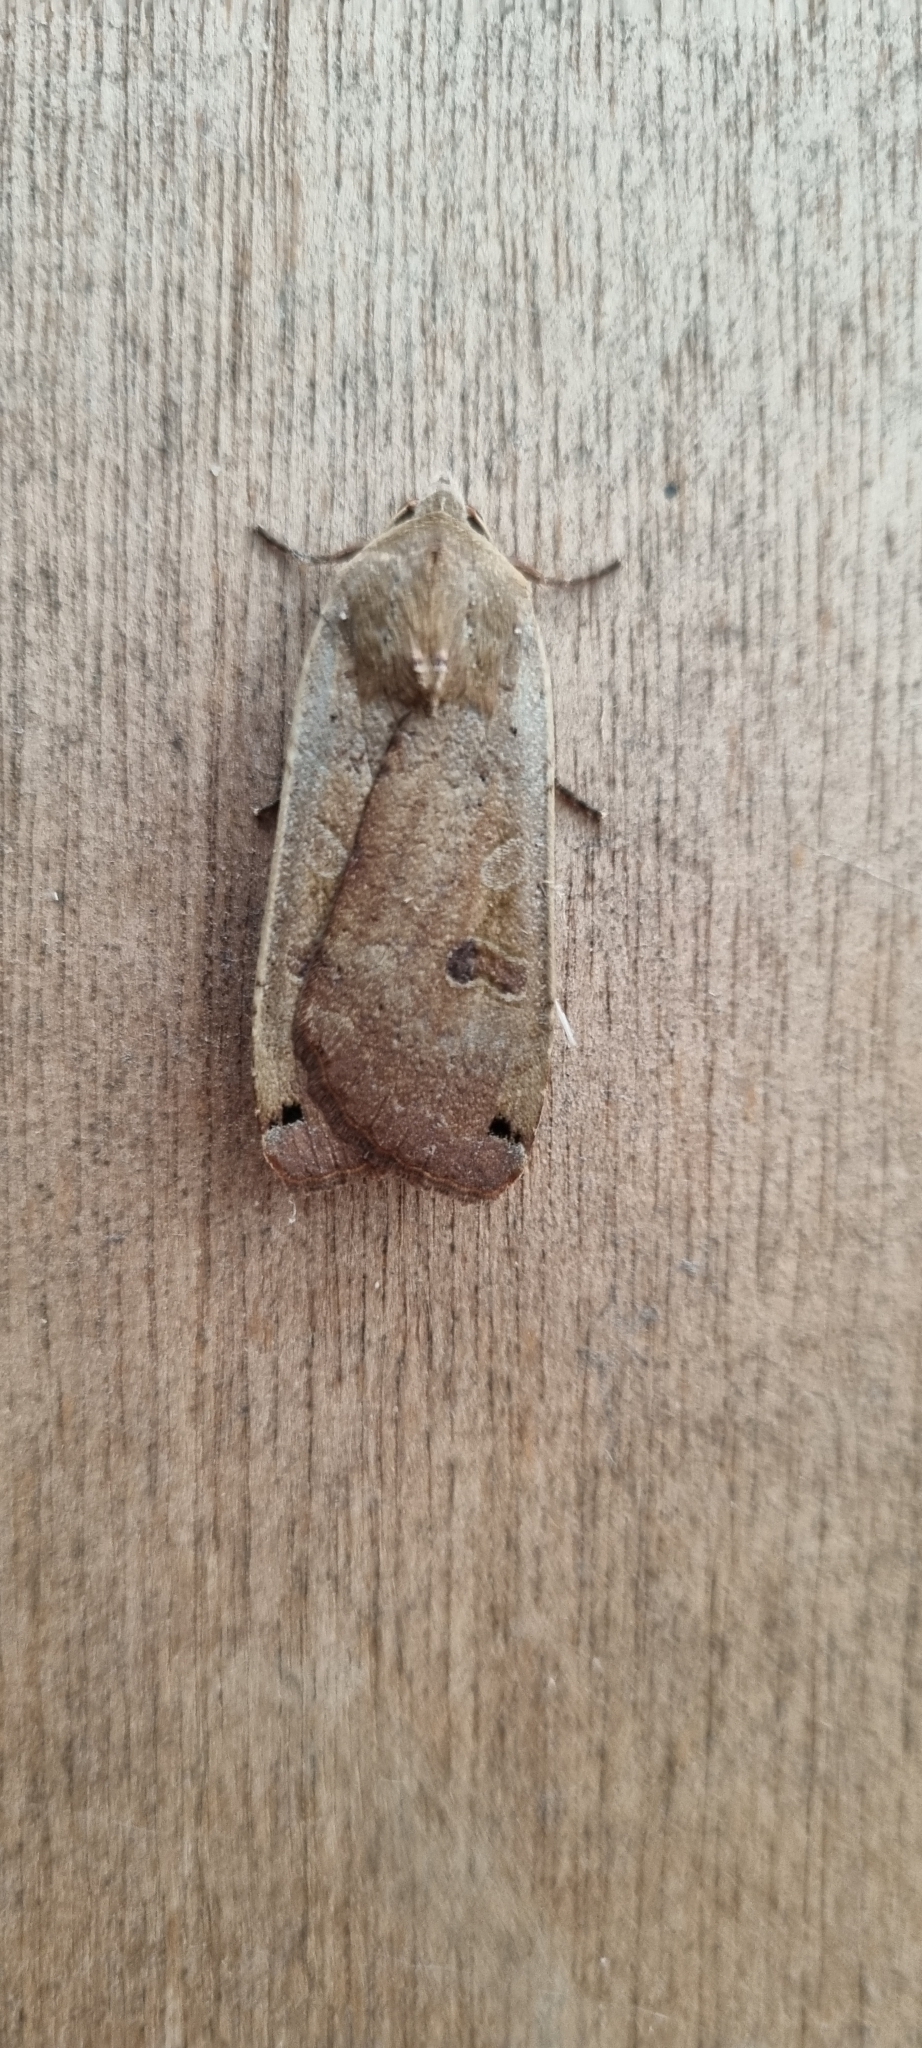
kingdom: Animalia
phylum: Arthropoda
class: Insecta
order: Lepidoptera
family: Noctuidae
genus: Noctua
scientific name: Noctua pronuba
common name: Large yellow underwing
